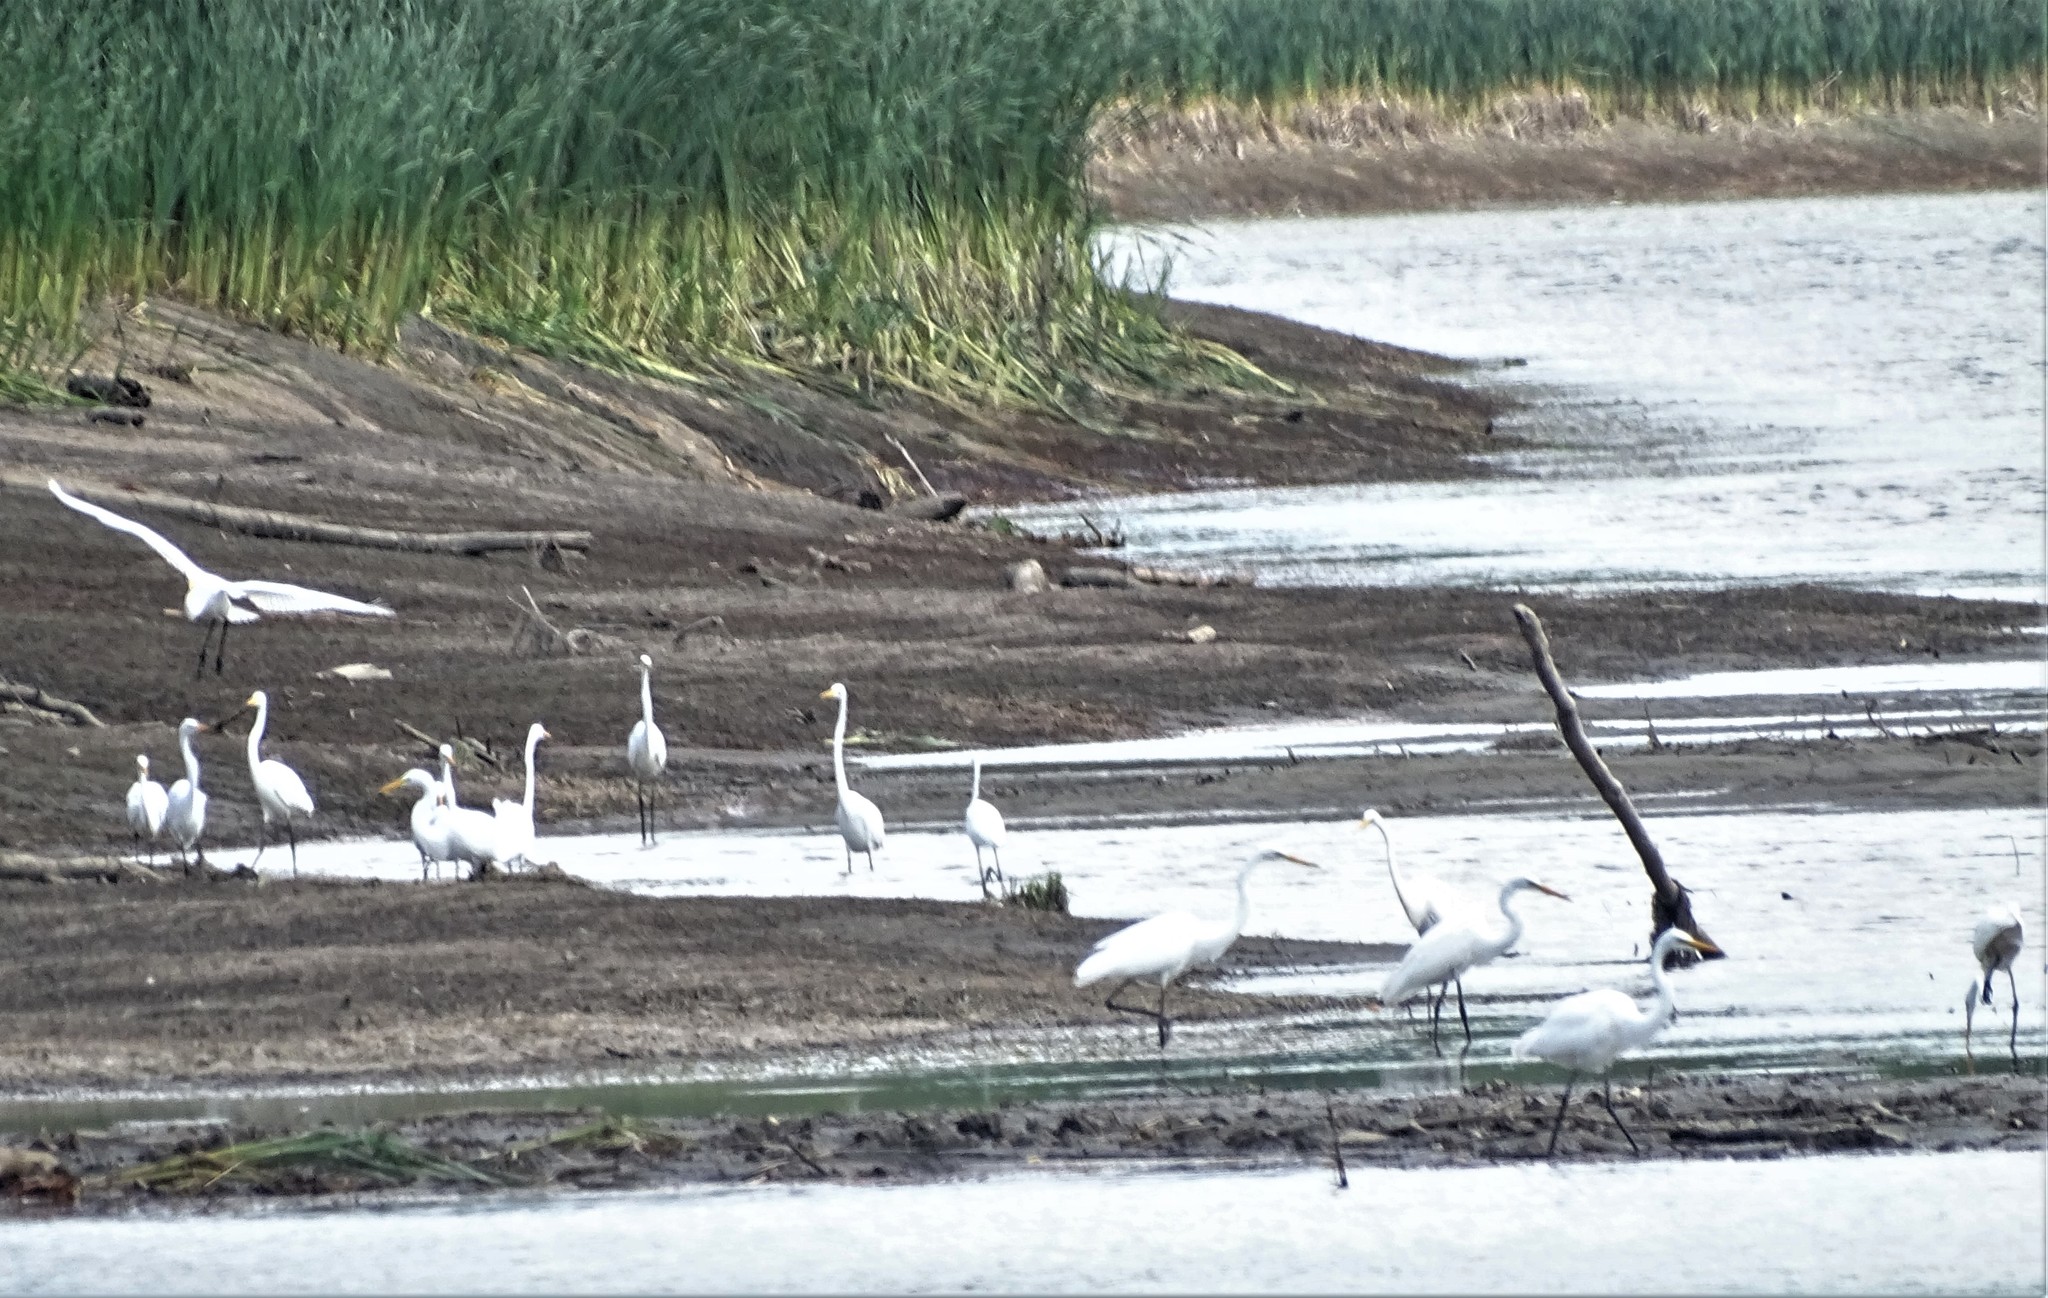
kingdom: Animalia
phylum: Chordata
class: Aves
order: Pelecaniformes
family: Ardeidae
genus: Ardea
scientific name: Ardea alba
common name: Great egret
